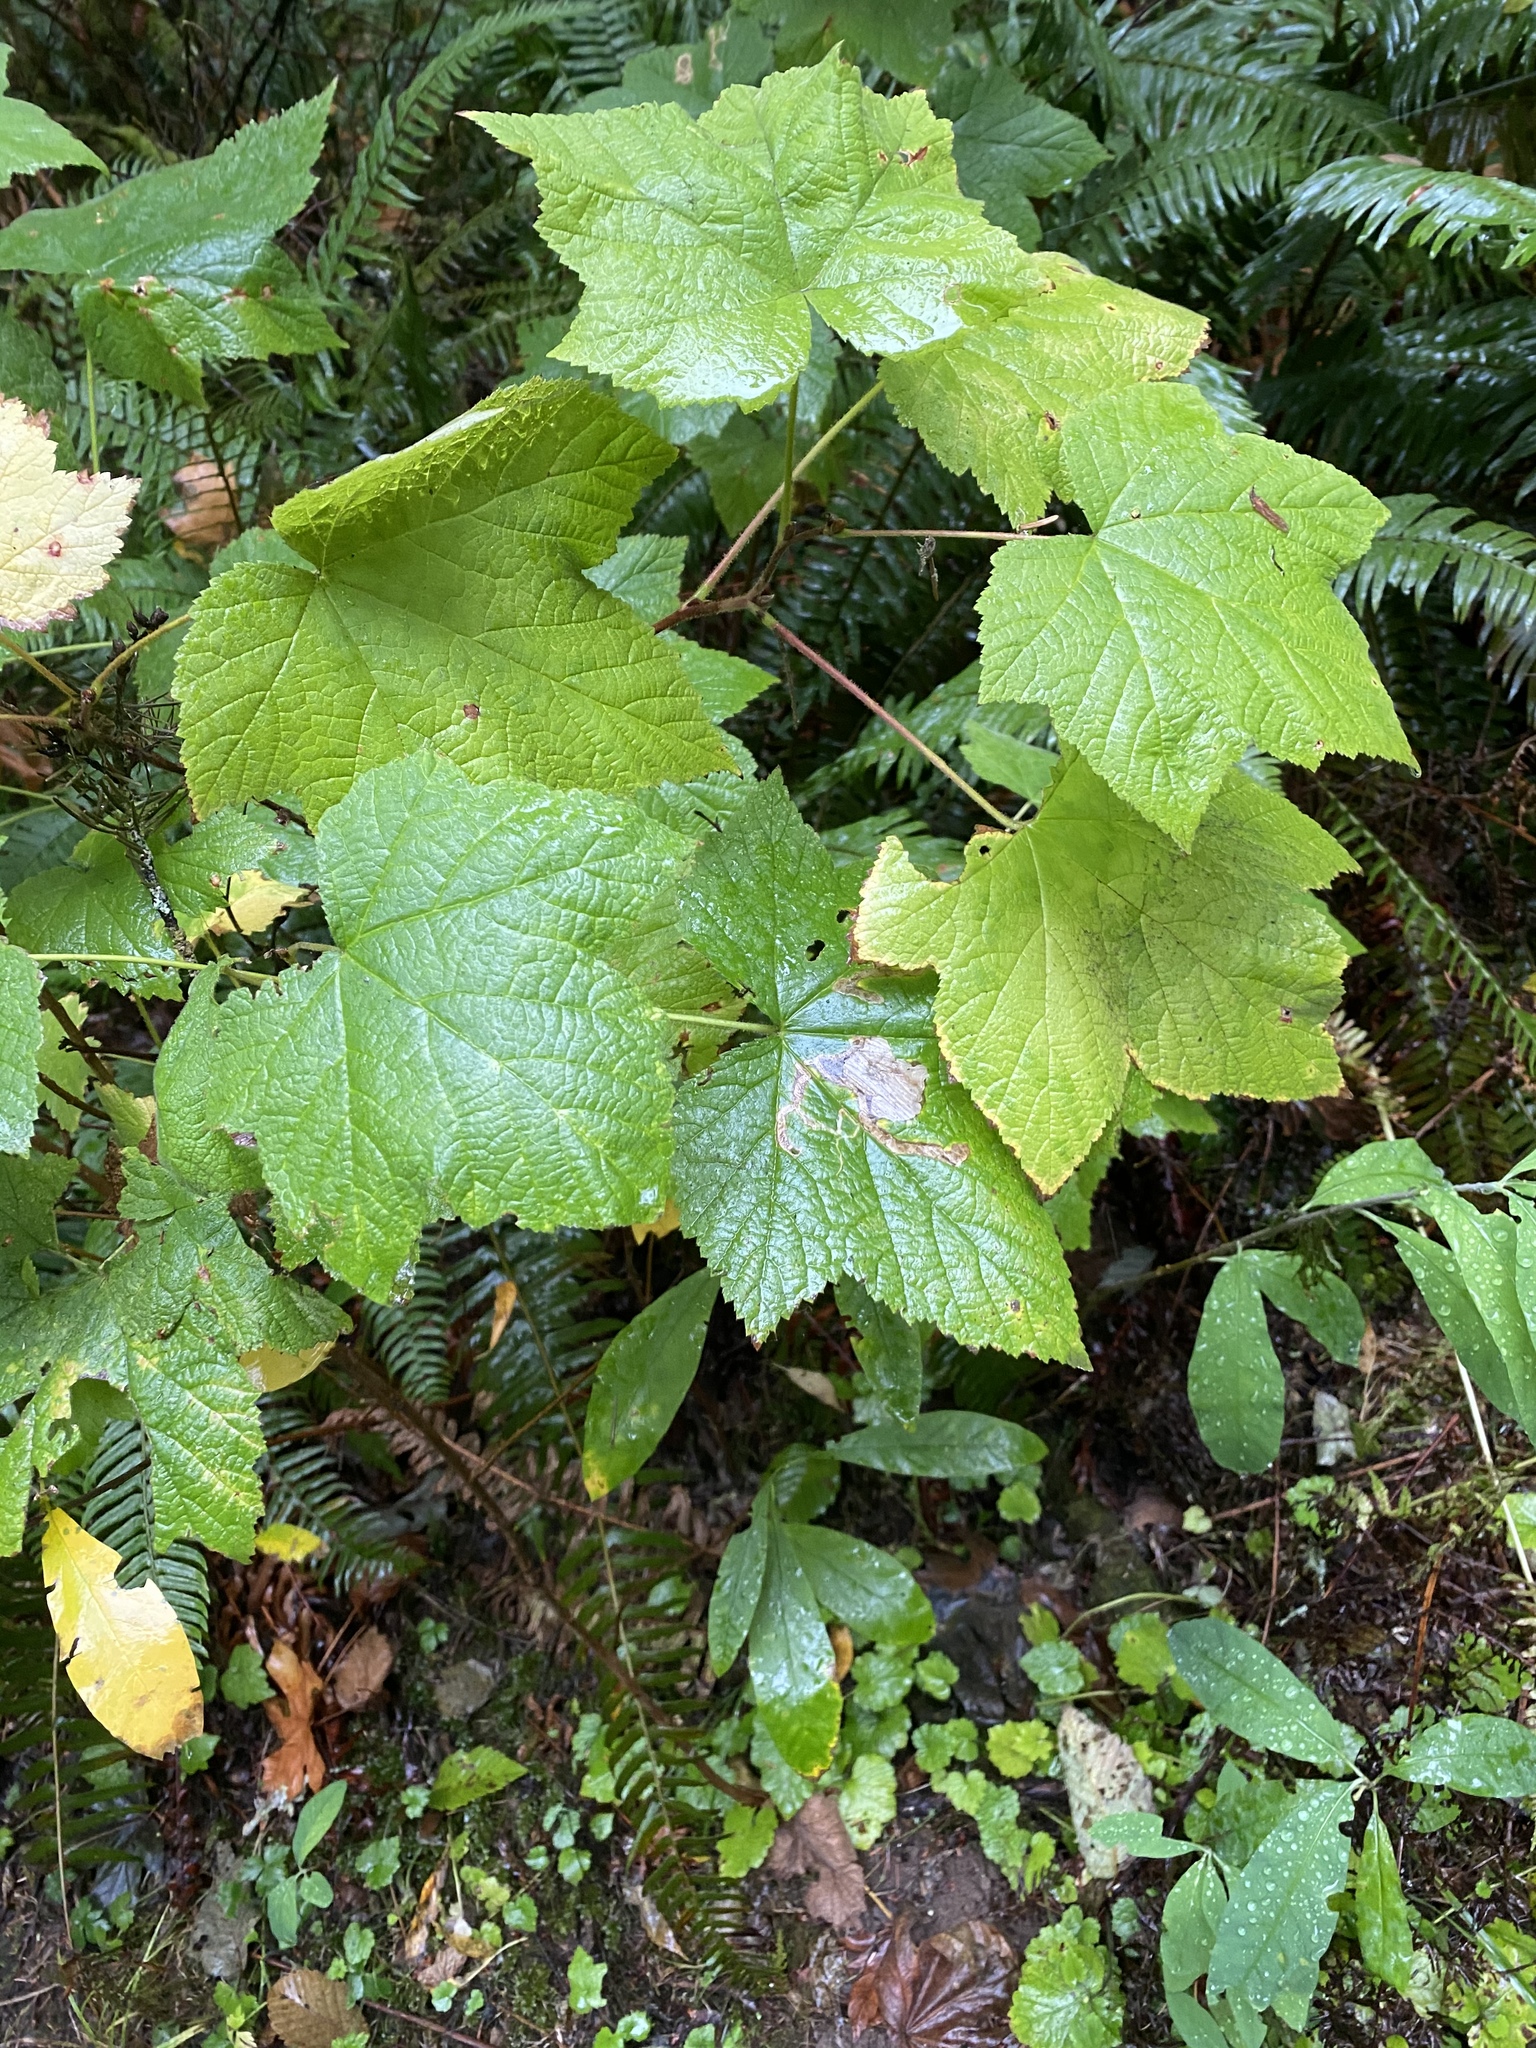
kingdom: Plantae
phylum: Tracheophyta
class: Magnoliopsida
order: Rosales
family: Rosaceae
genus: Rubus
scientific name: Rubus parviflorus
